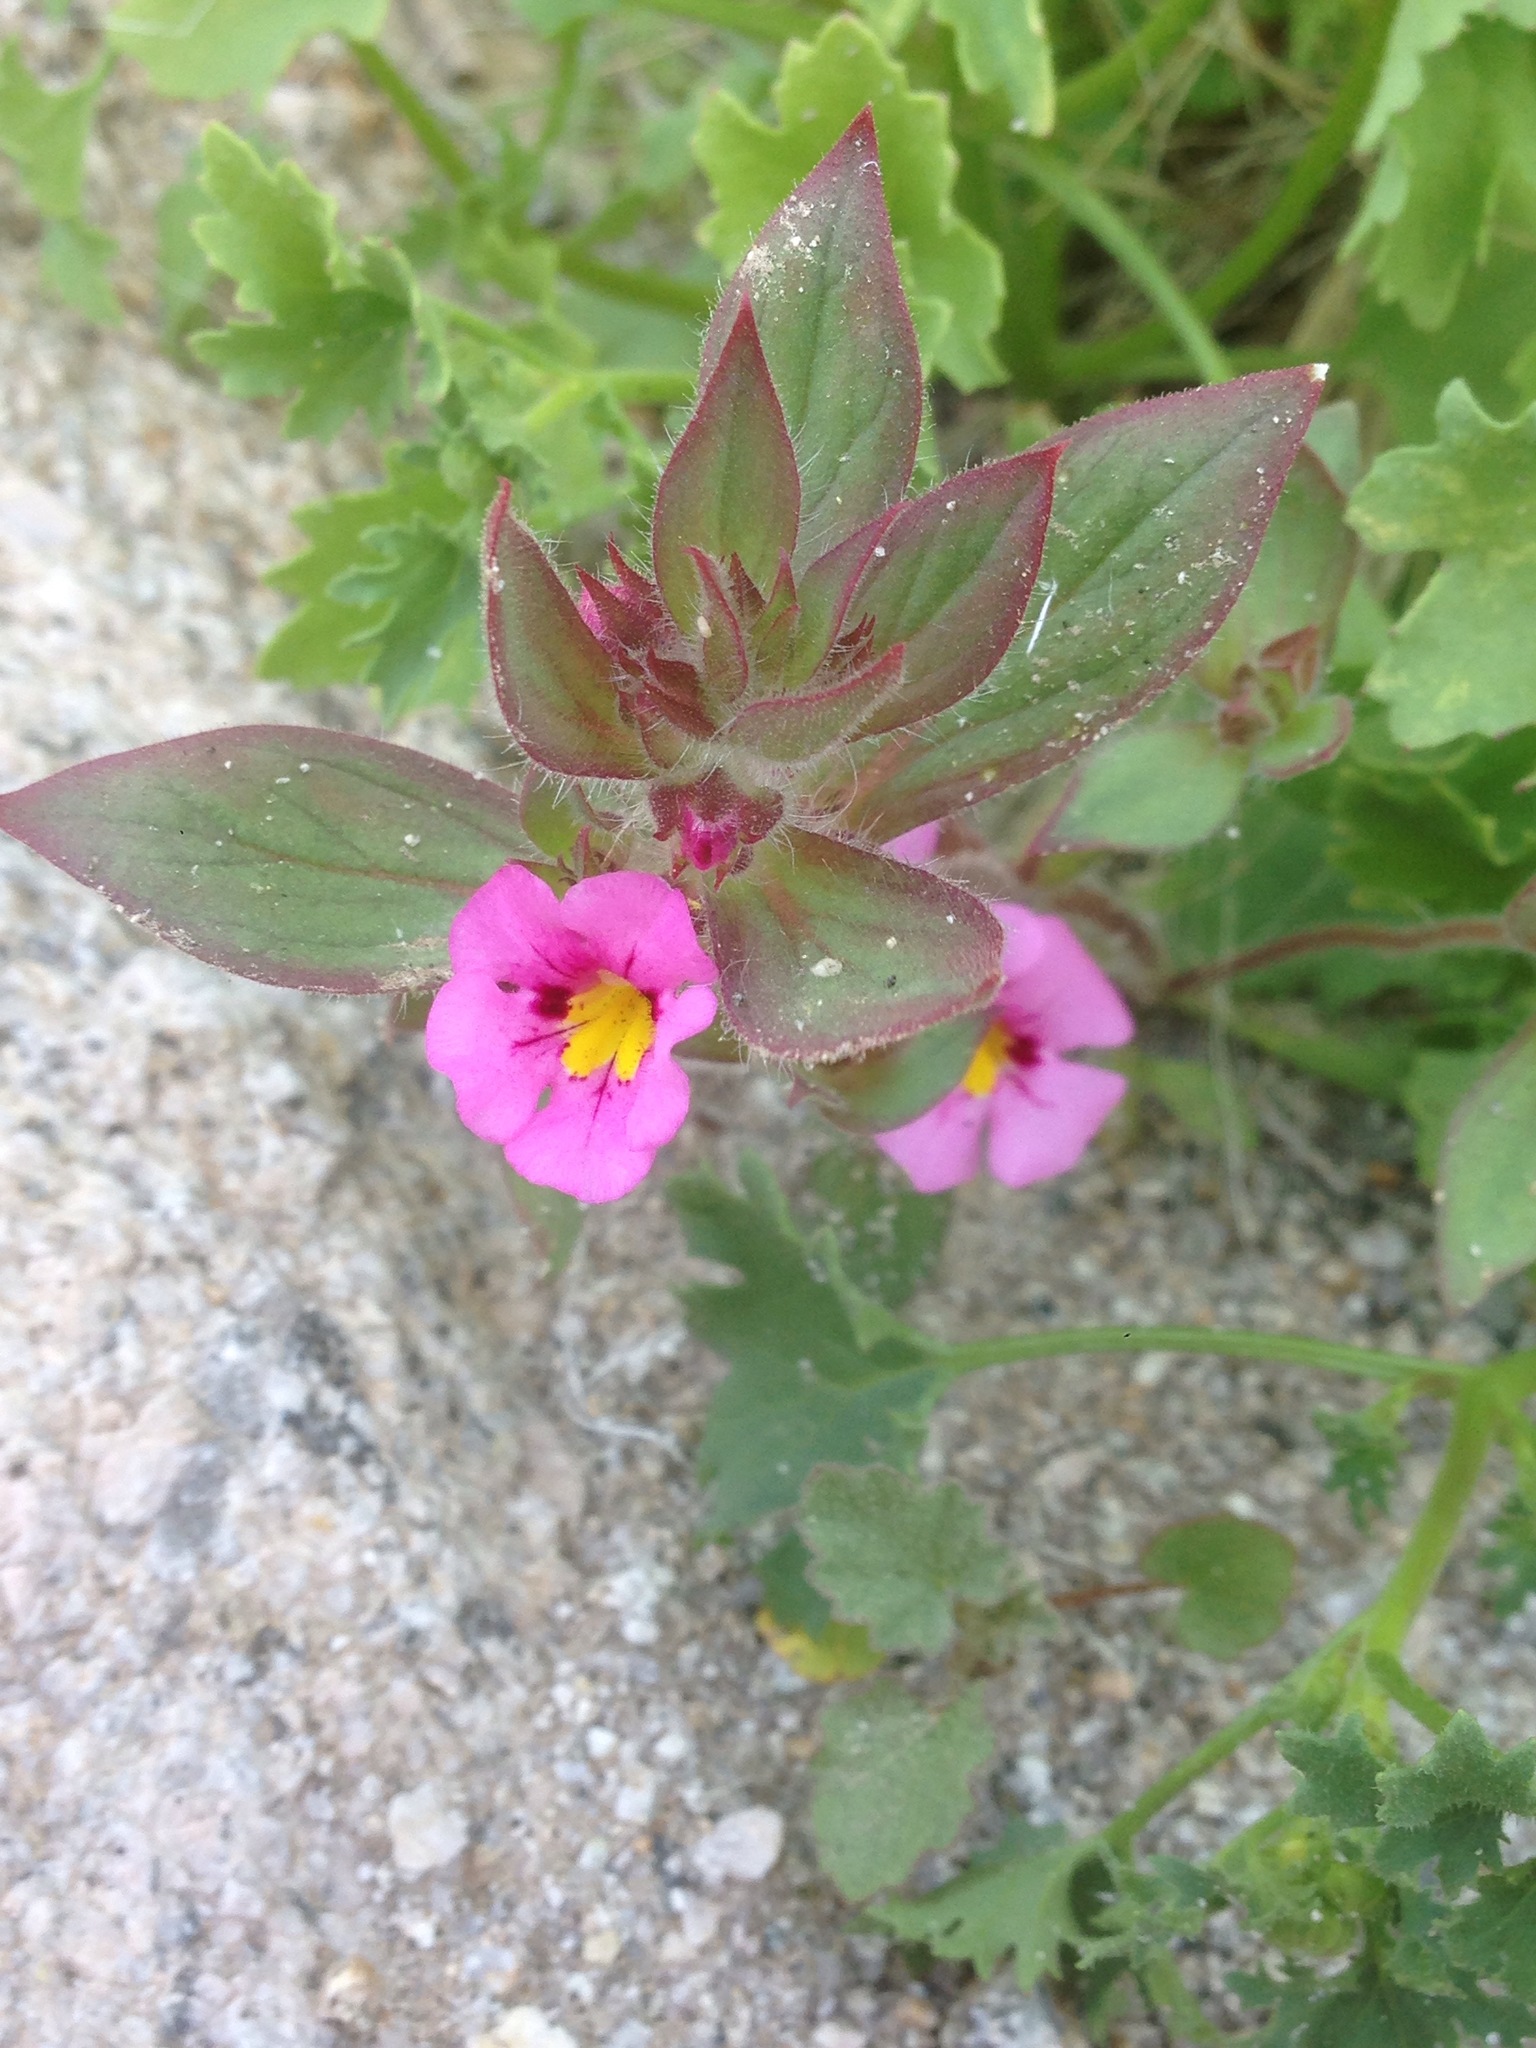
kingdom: Plantae
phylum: Tracheophyta
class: Magnoliopsida
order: Lamiales
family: Phrymaceae
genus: Diplacus
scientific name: Diplacus bigelovii
